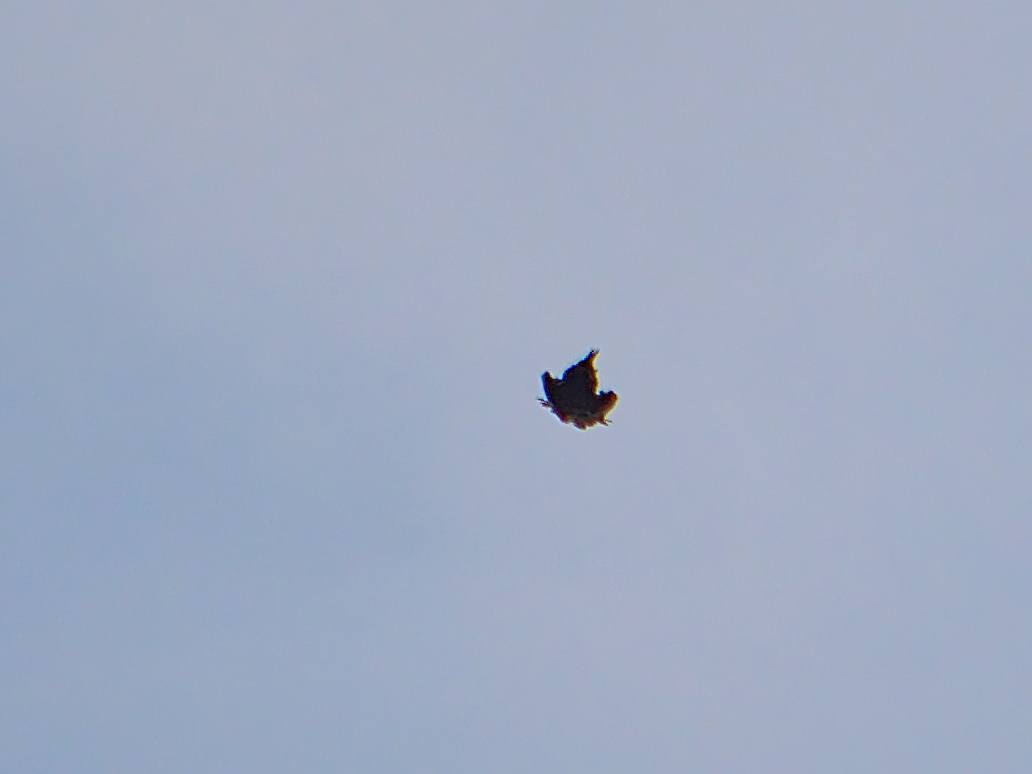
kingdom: Animalia
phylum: Chordata
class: Aves
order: Passeriformes
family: Corvidae
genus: Corvus
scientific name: Corvus corax
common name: Common raven
